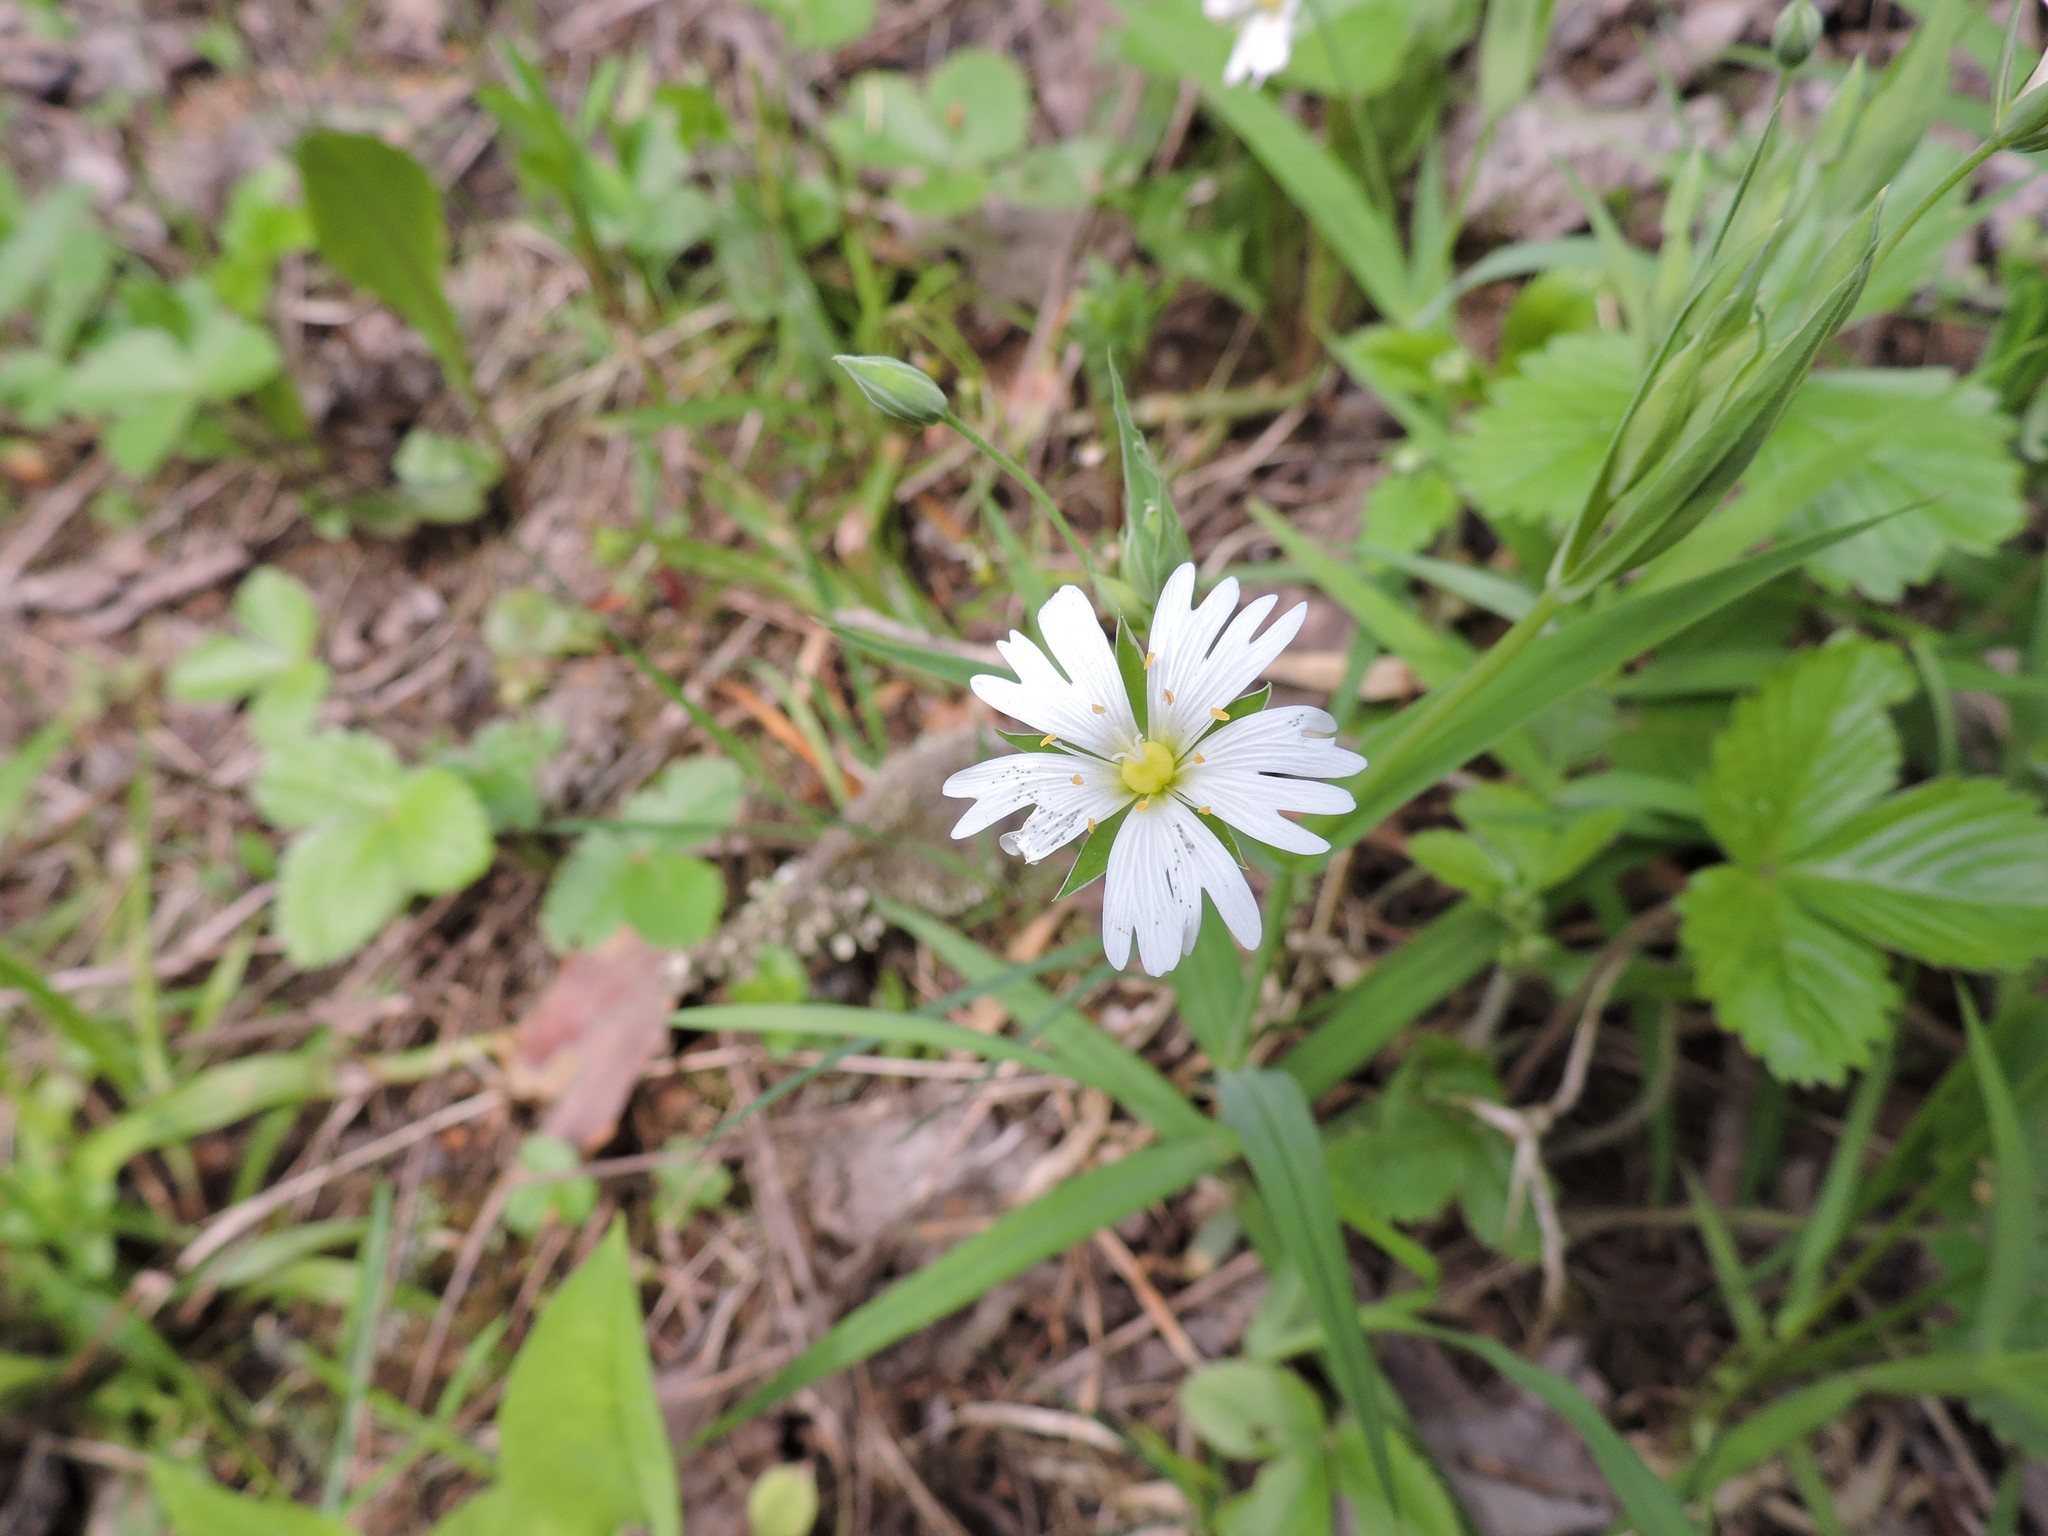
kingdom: Plantae
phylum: Tracheophyta
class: Magnoliopsida
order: Caryophyllales
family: Caryophyllaceae
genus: Rabelera
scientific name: Rabelera holostea
